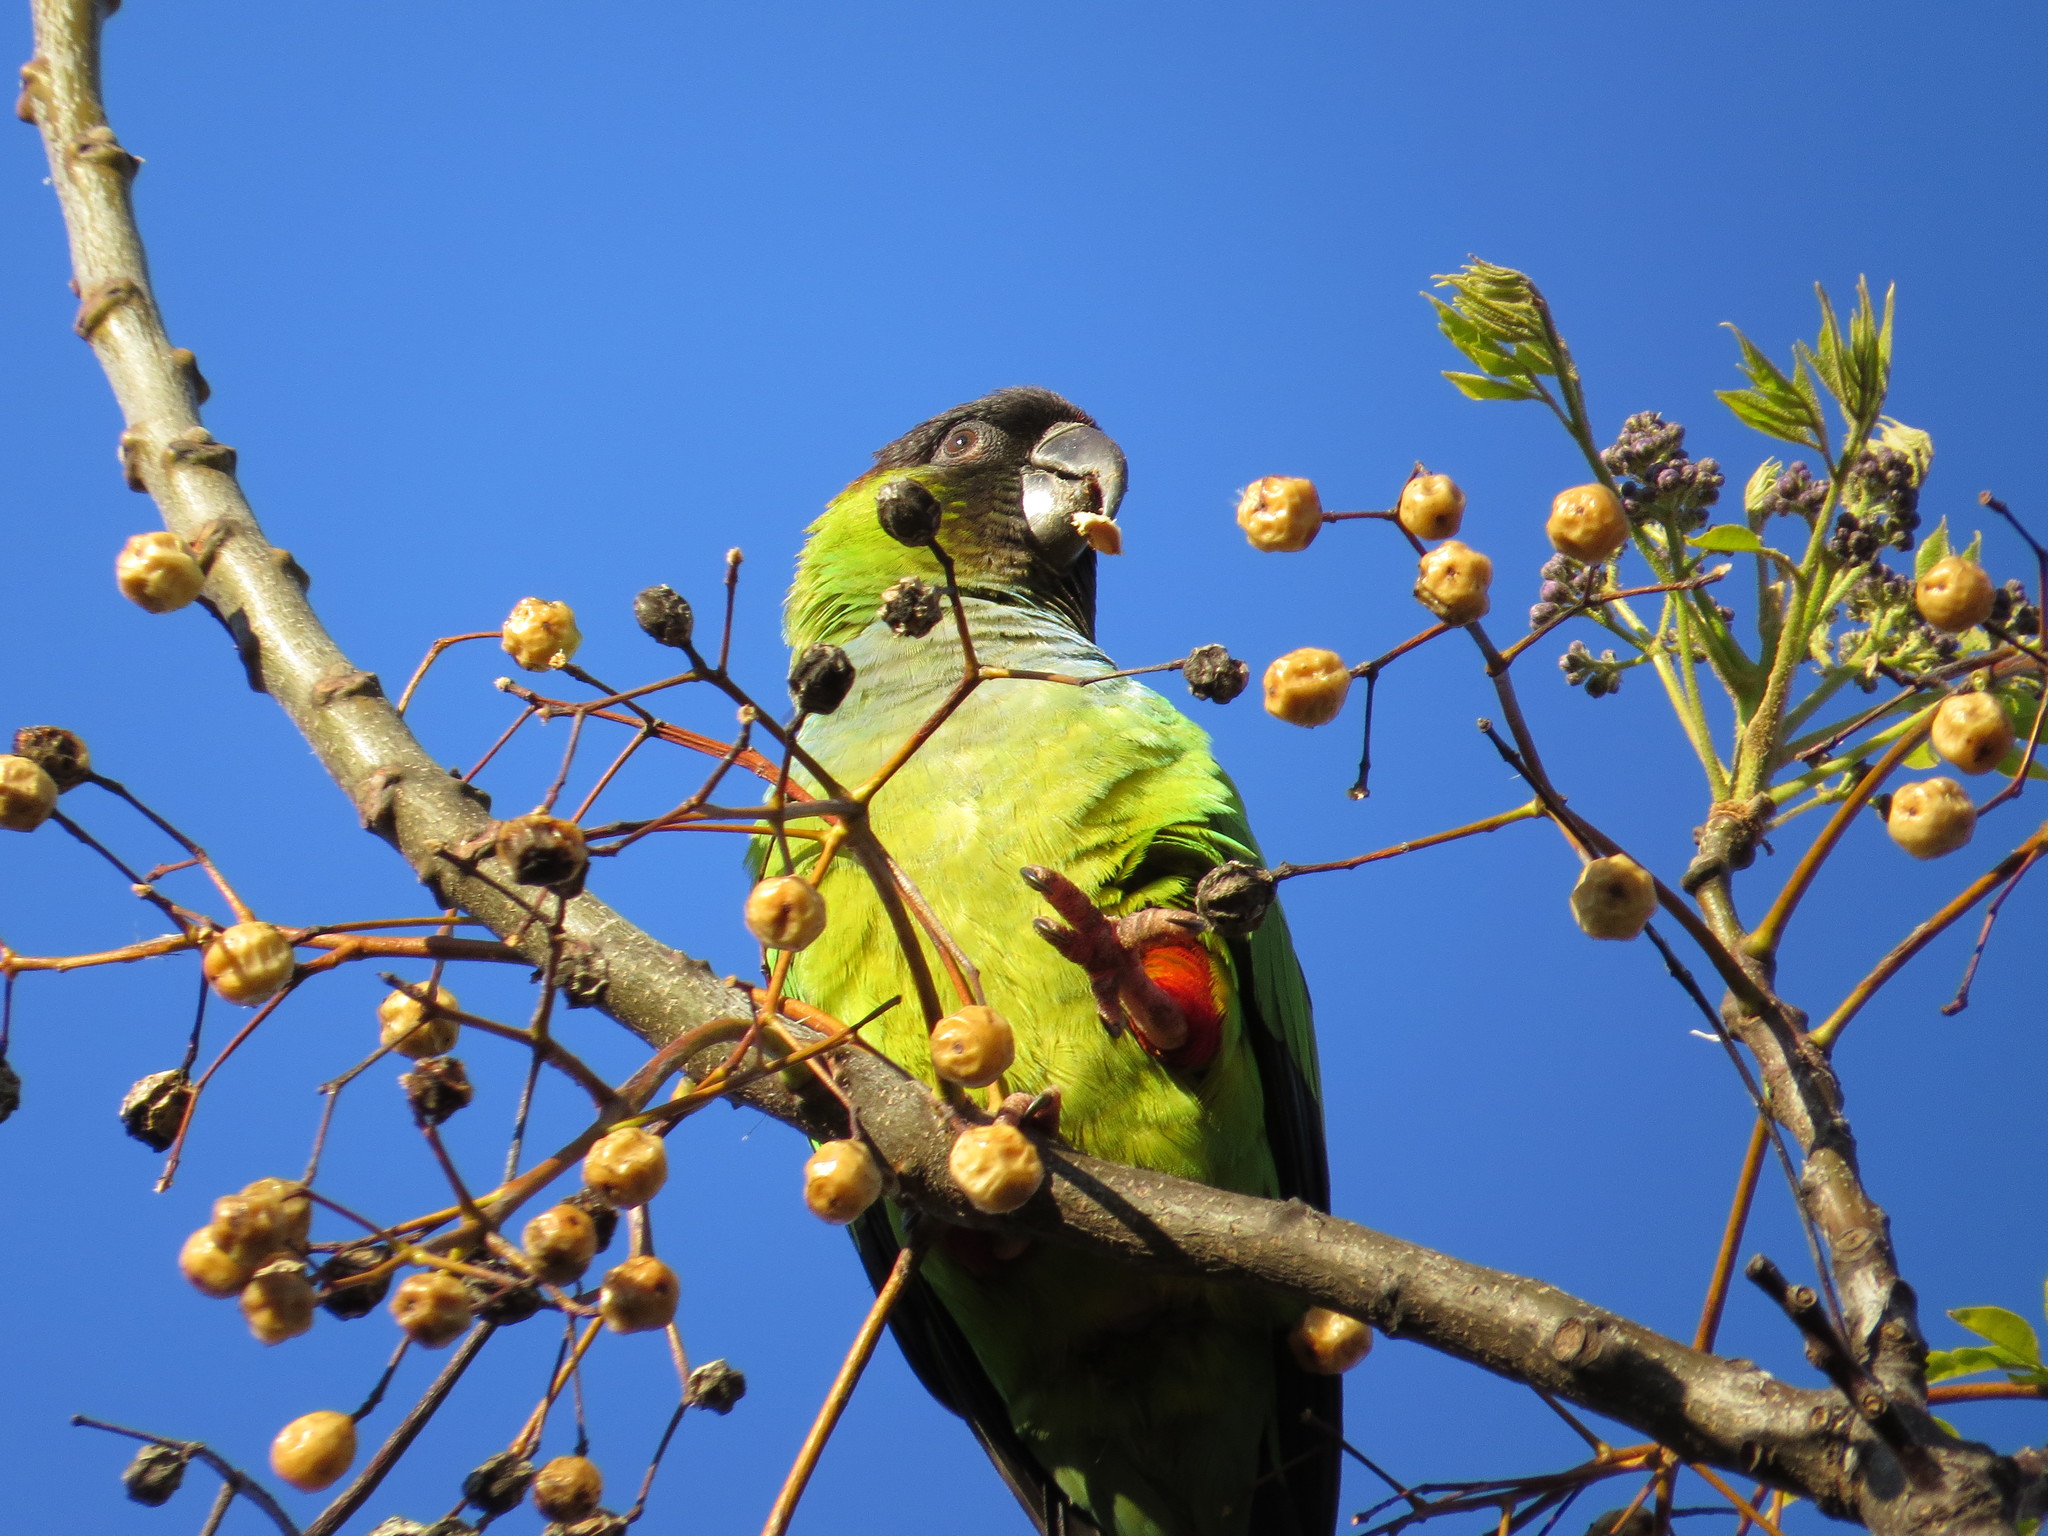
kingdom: Animalia
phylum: Chordata
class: Aves
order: Psittaciformes
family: Psittacidae
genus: Nandayus
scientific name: Nandayus nenday
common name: Nanday parakeet
